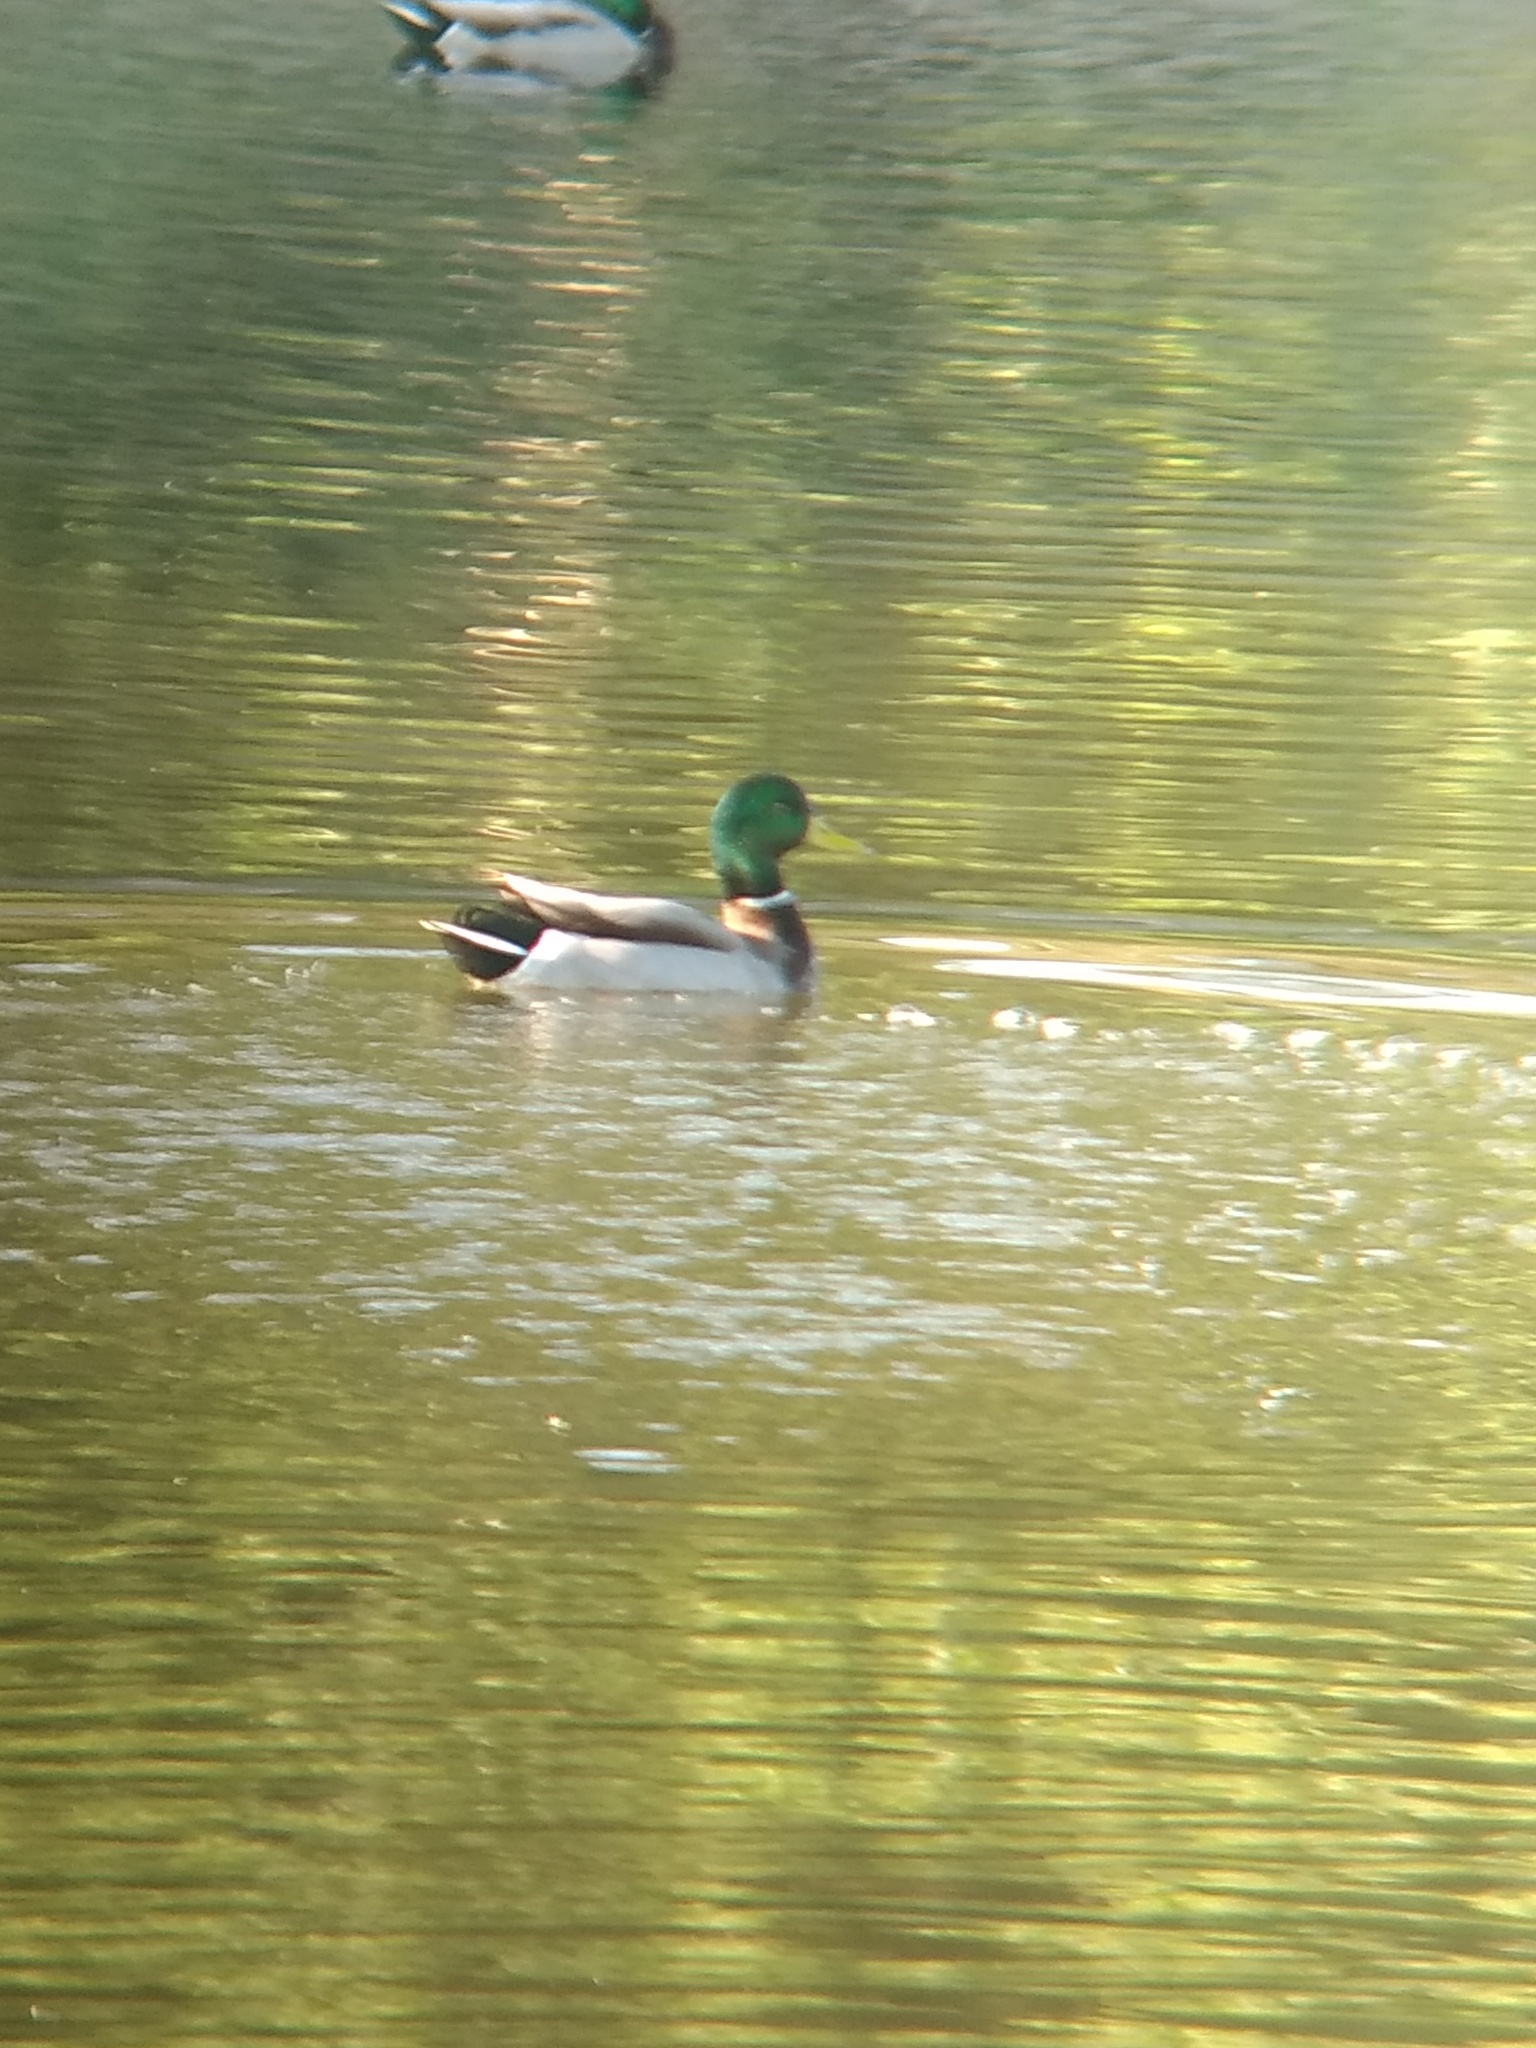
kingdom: Animalia
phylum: Chordata
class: Aves
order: Anseriformes
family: Anatidae
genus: Anas
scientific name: Anas platyrhynchos
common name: Mallard
